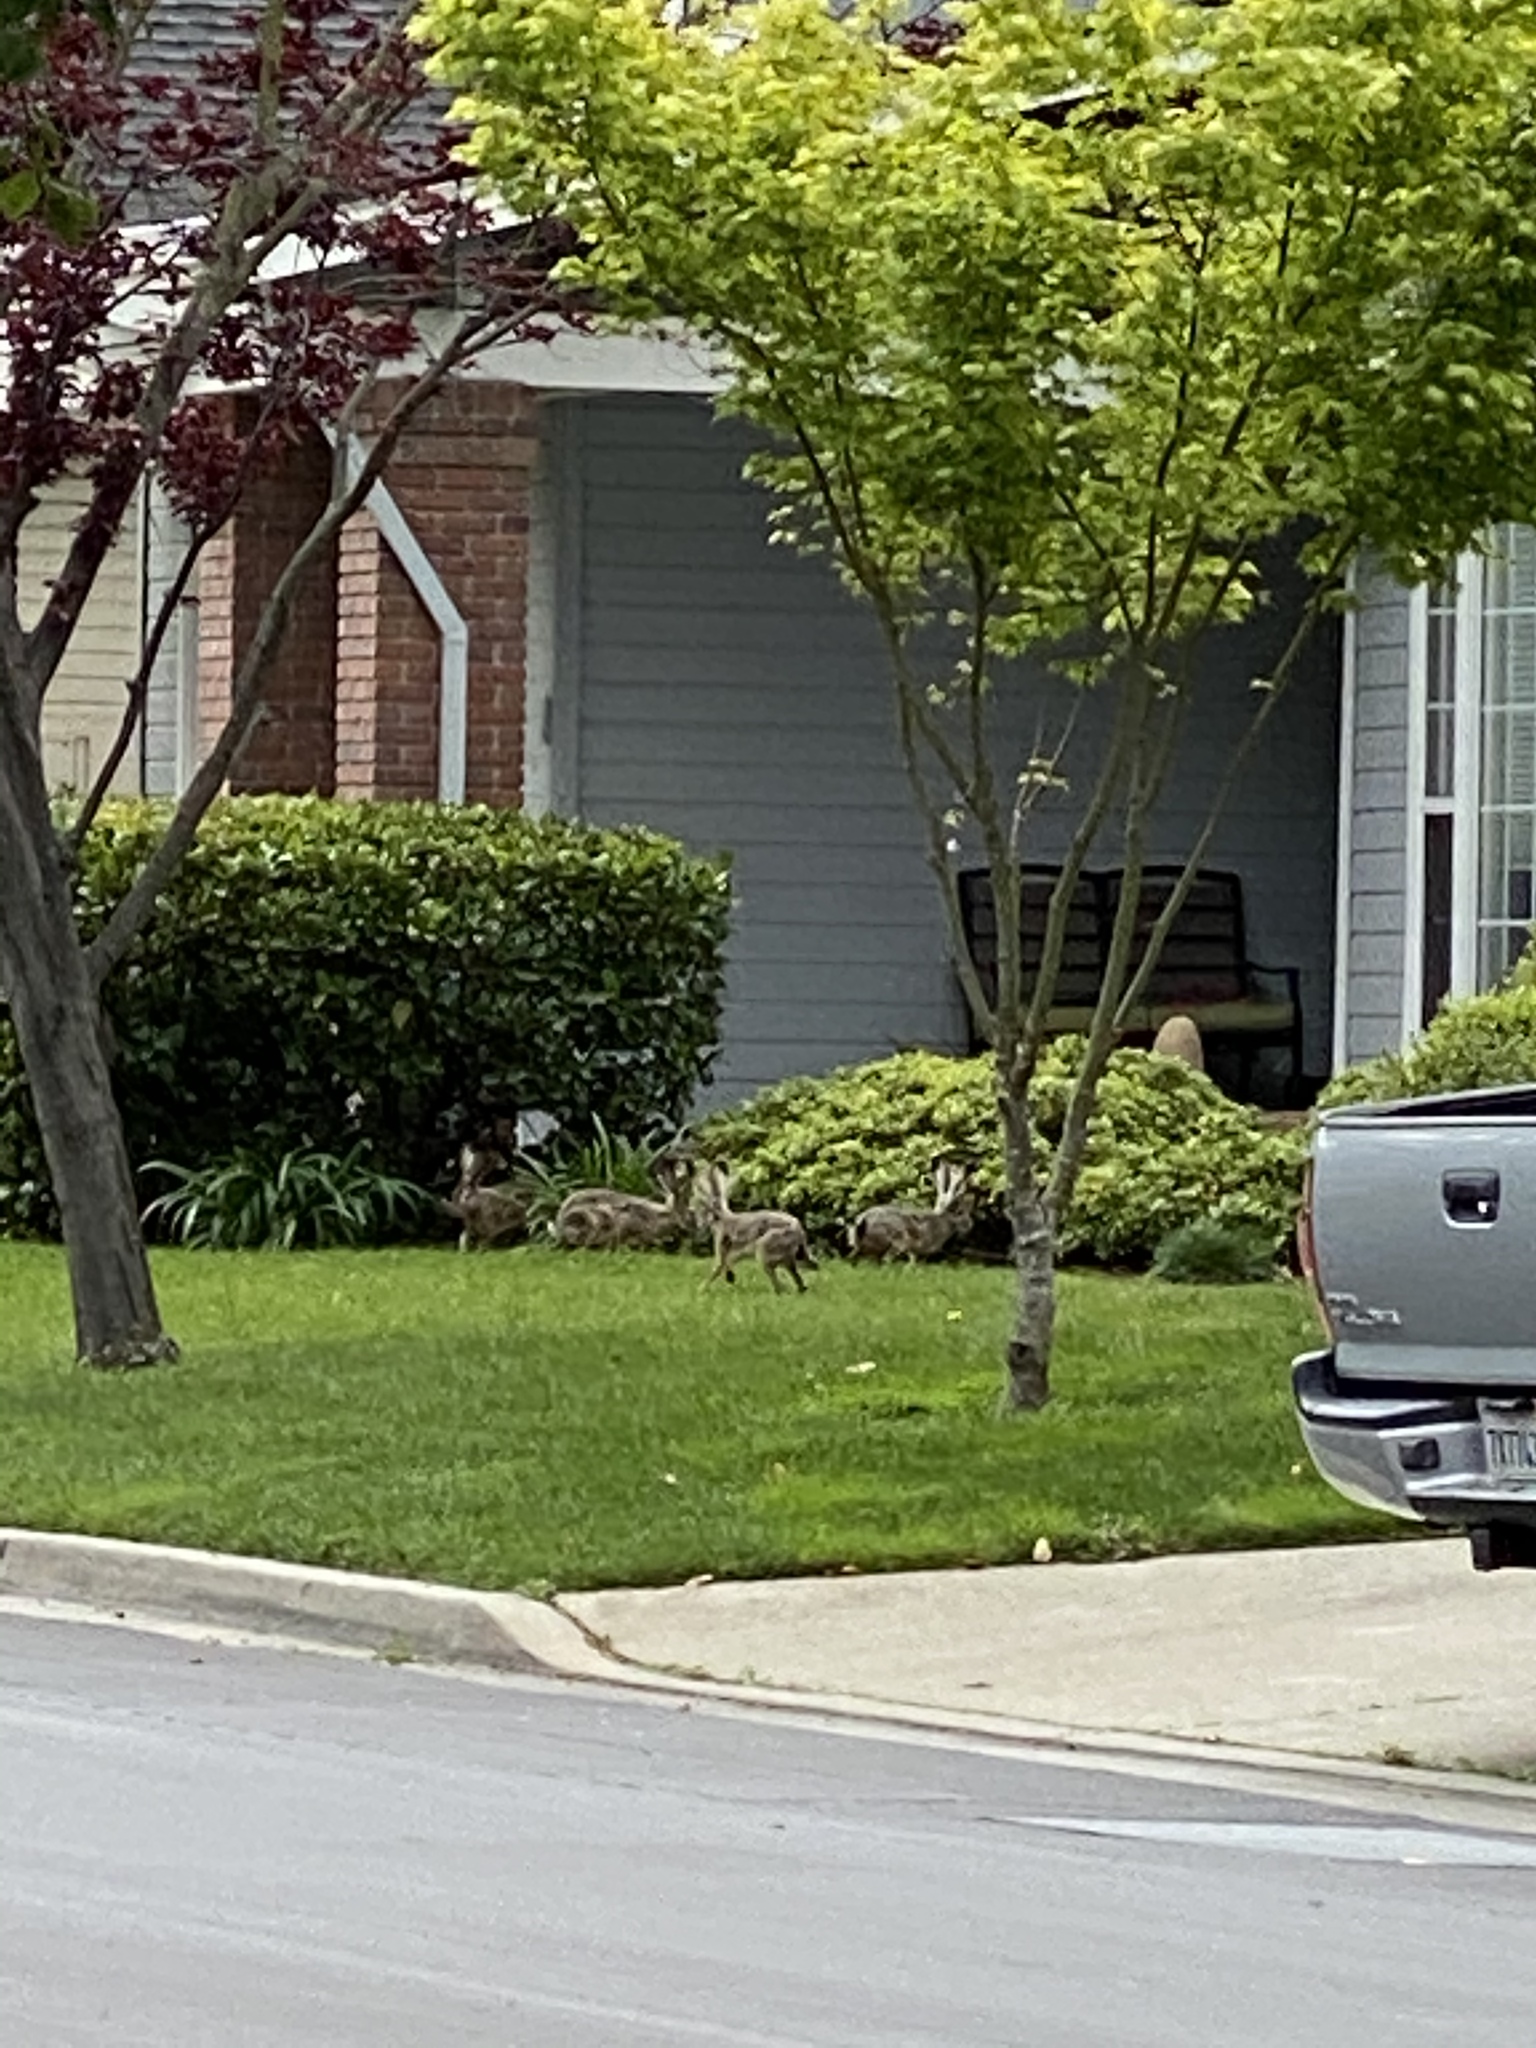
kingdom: Animalia
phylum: Chordata
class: Mammalia
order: Lagomorpha
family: Leporidae
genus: Lepus
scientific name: Lepus californicus
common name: Black-tailed jackrabbit
